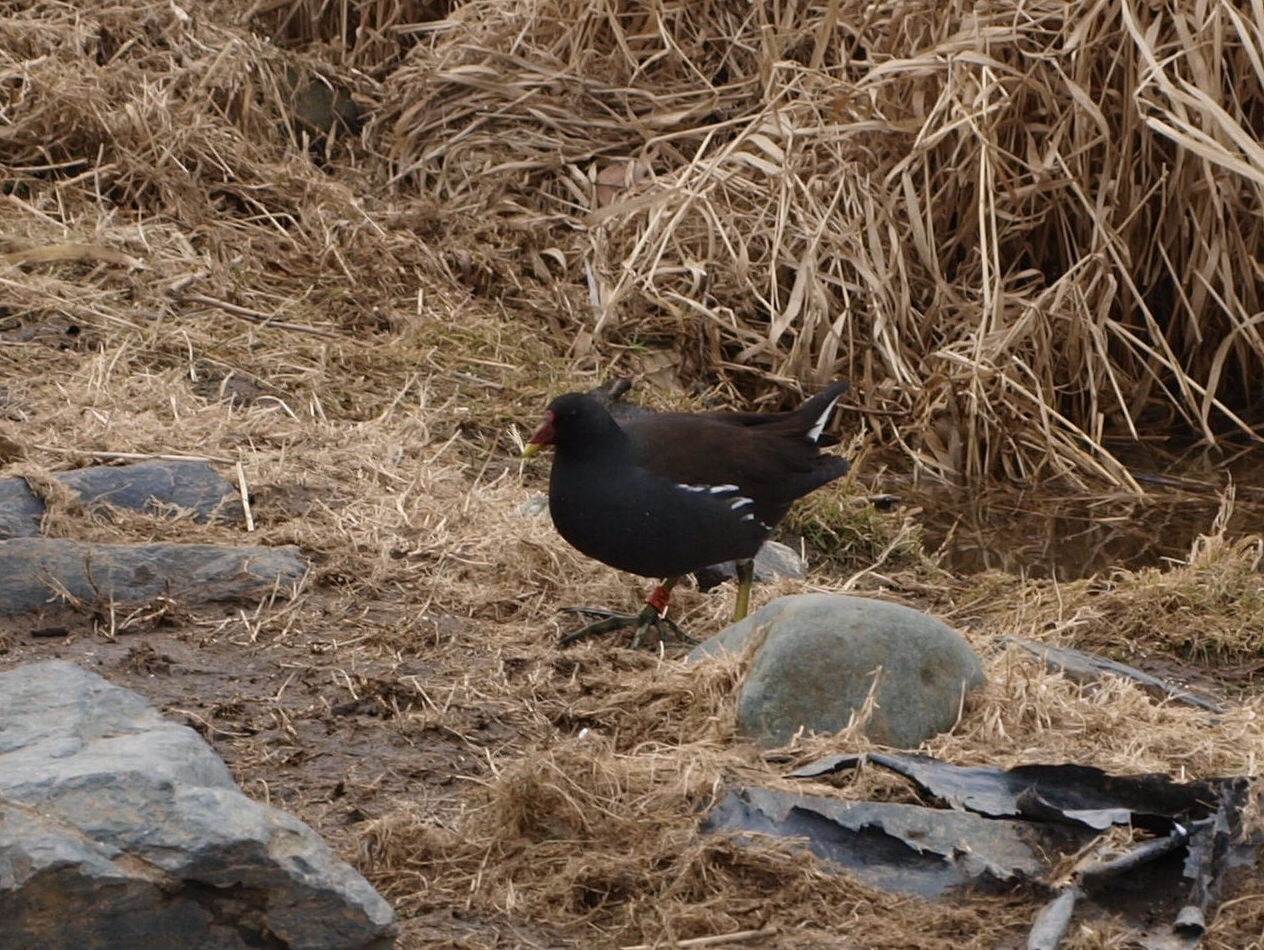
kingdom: Animalia
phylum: Chordata
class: Aves
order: Gruiformes
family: Rallidae
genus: Gallinula
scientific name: Gallinula chloropus
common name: Common moorhen
